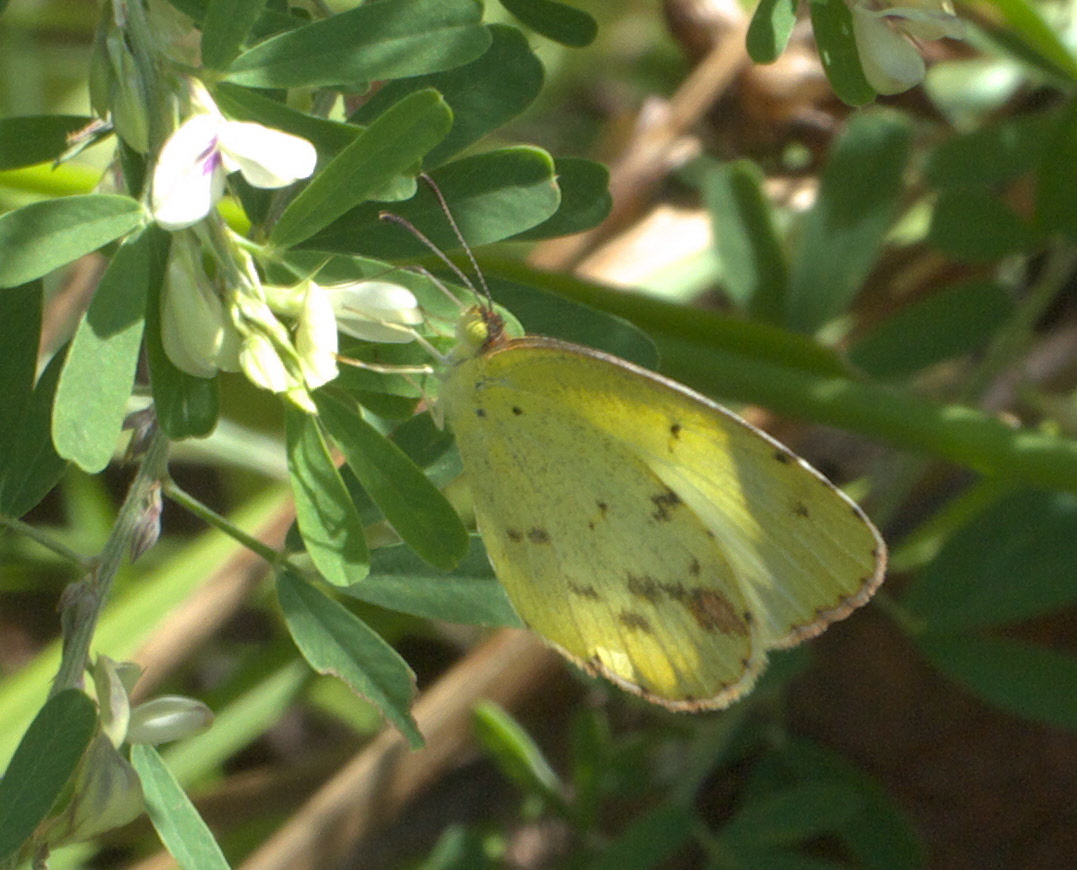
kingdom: Animalia
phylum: Arthropoda
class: Insecta
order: Lepidoptera
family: Pieridae
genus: Pyrisitia
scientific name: Pyrisitia lisa
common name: Little yellow
